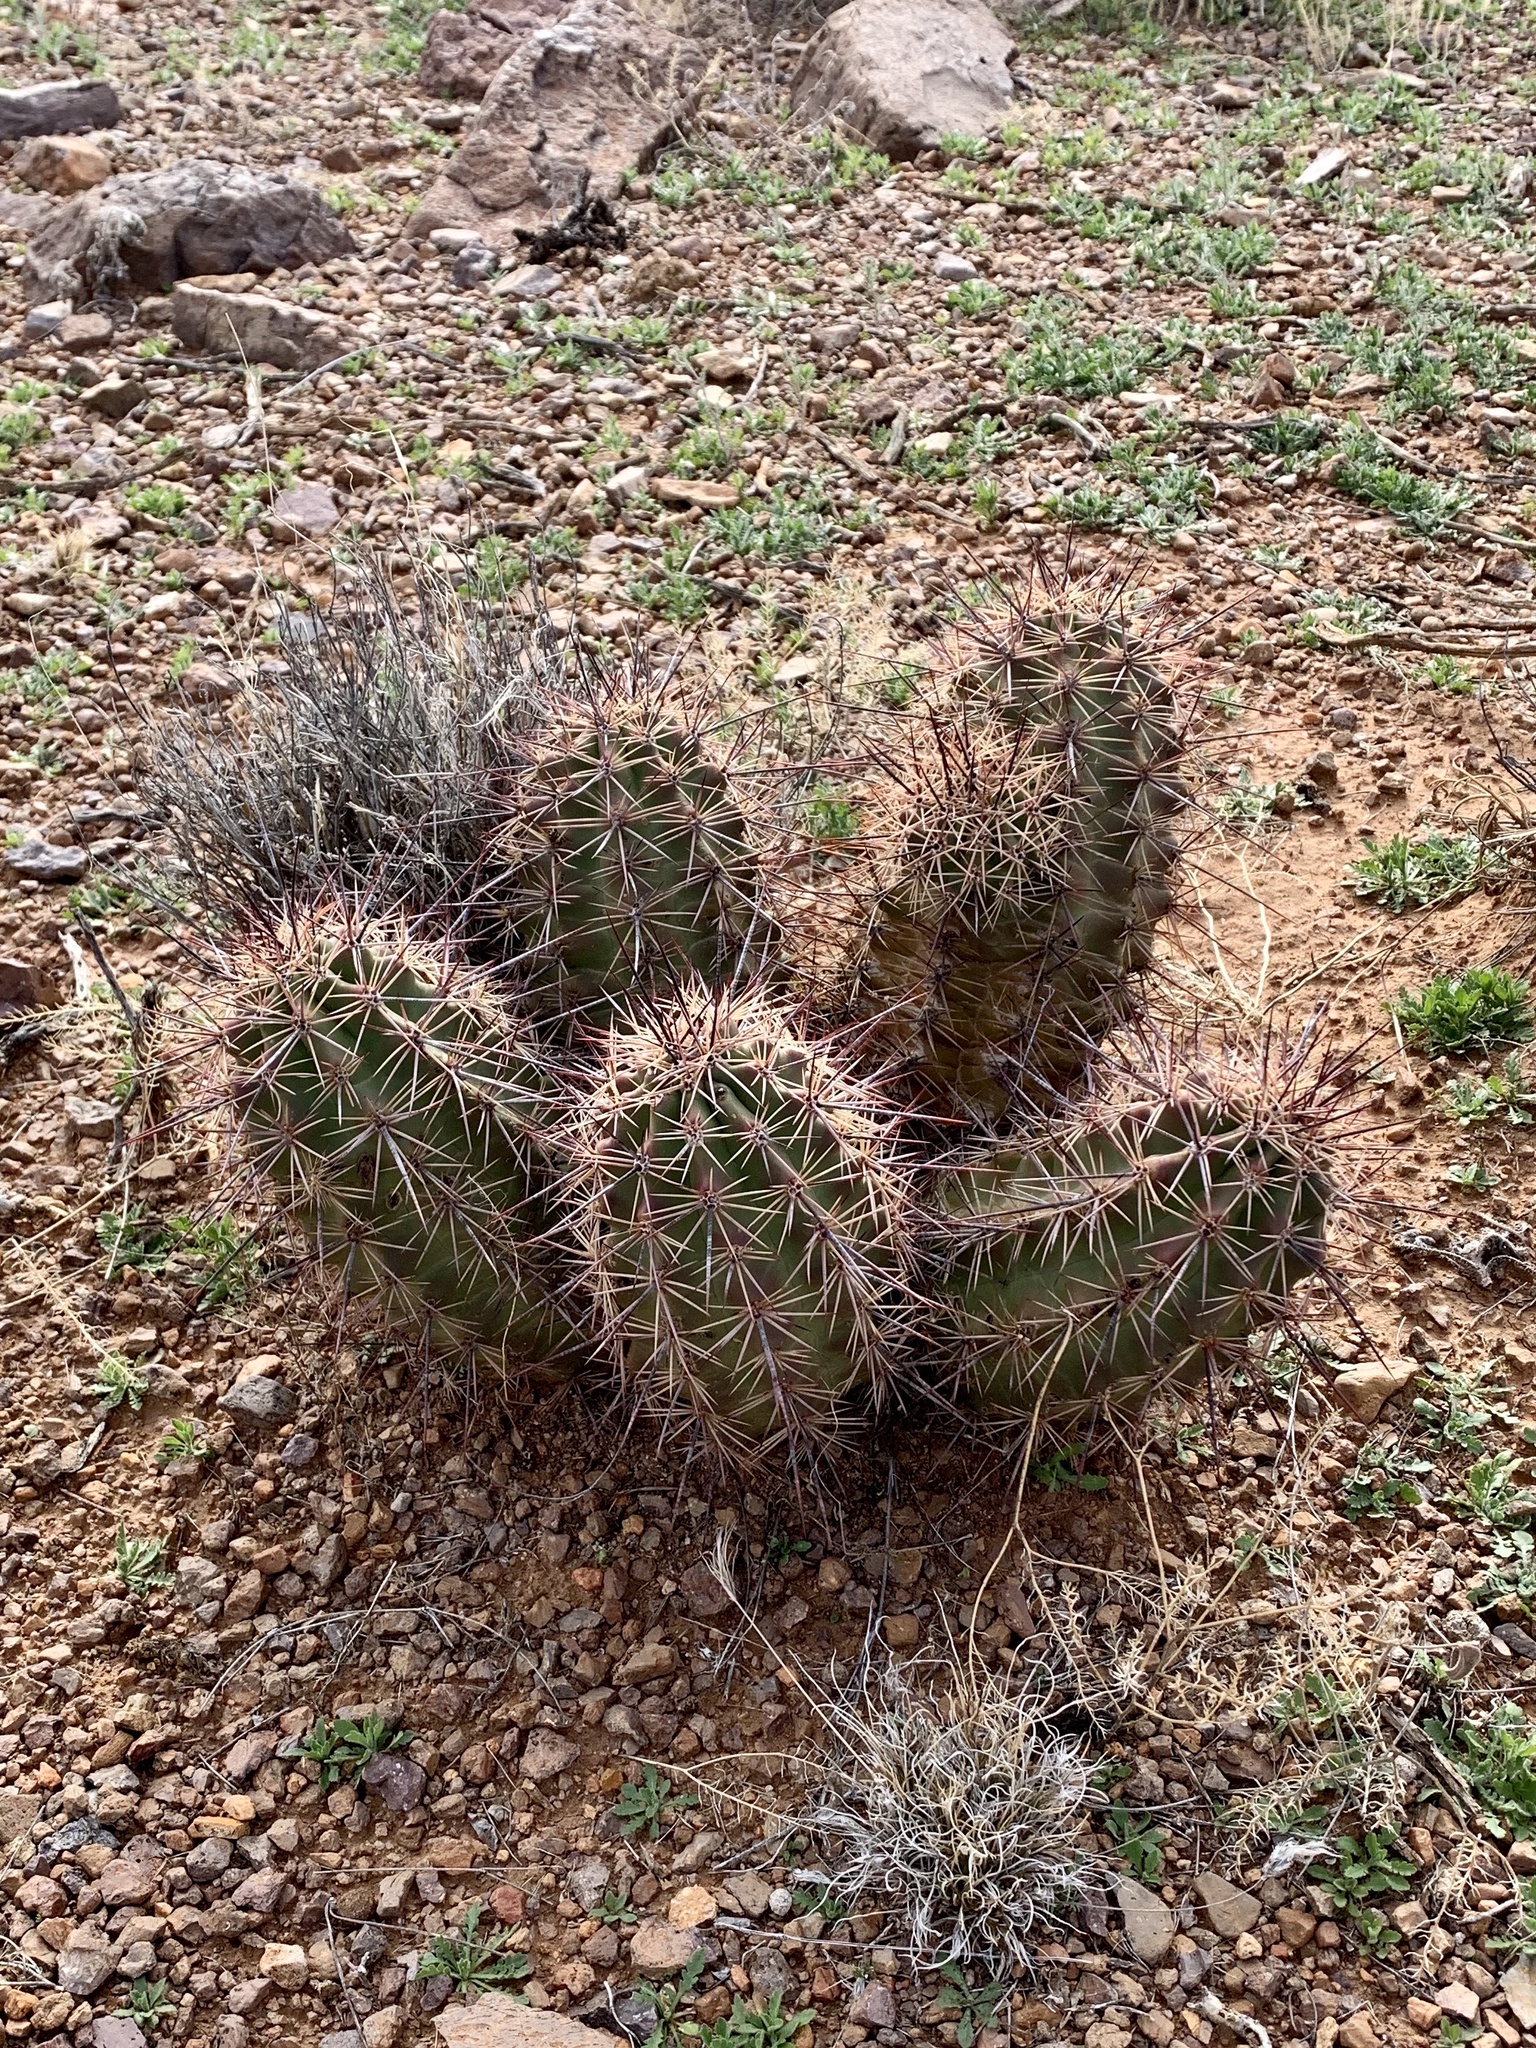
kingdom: Plantae
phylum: Tracheophyta
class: Magnoliopsida
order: Caryophyllales
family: Cactaceae
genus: Echinocereus
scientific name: Echinocereus coccineus
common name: Scarlet hedgehog cactus
